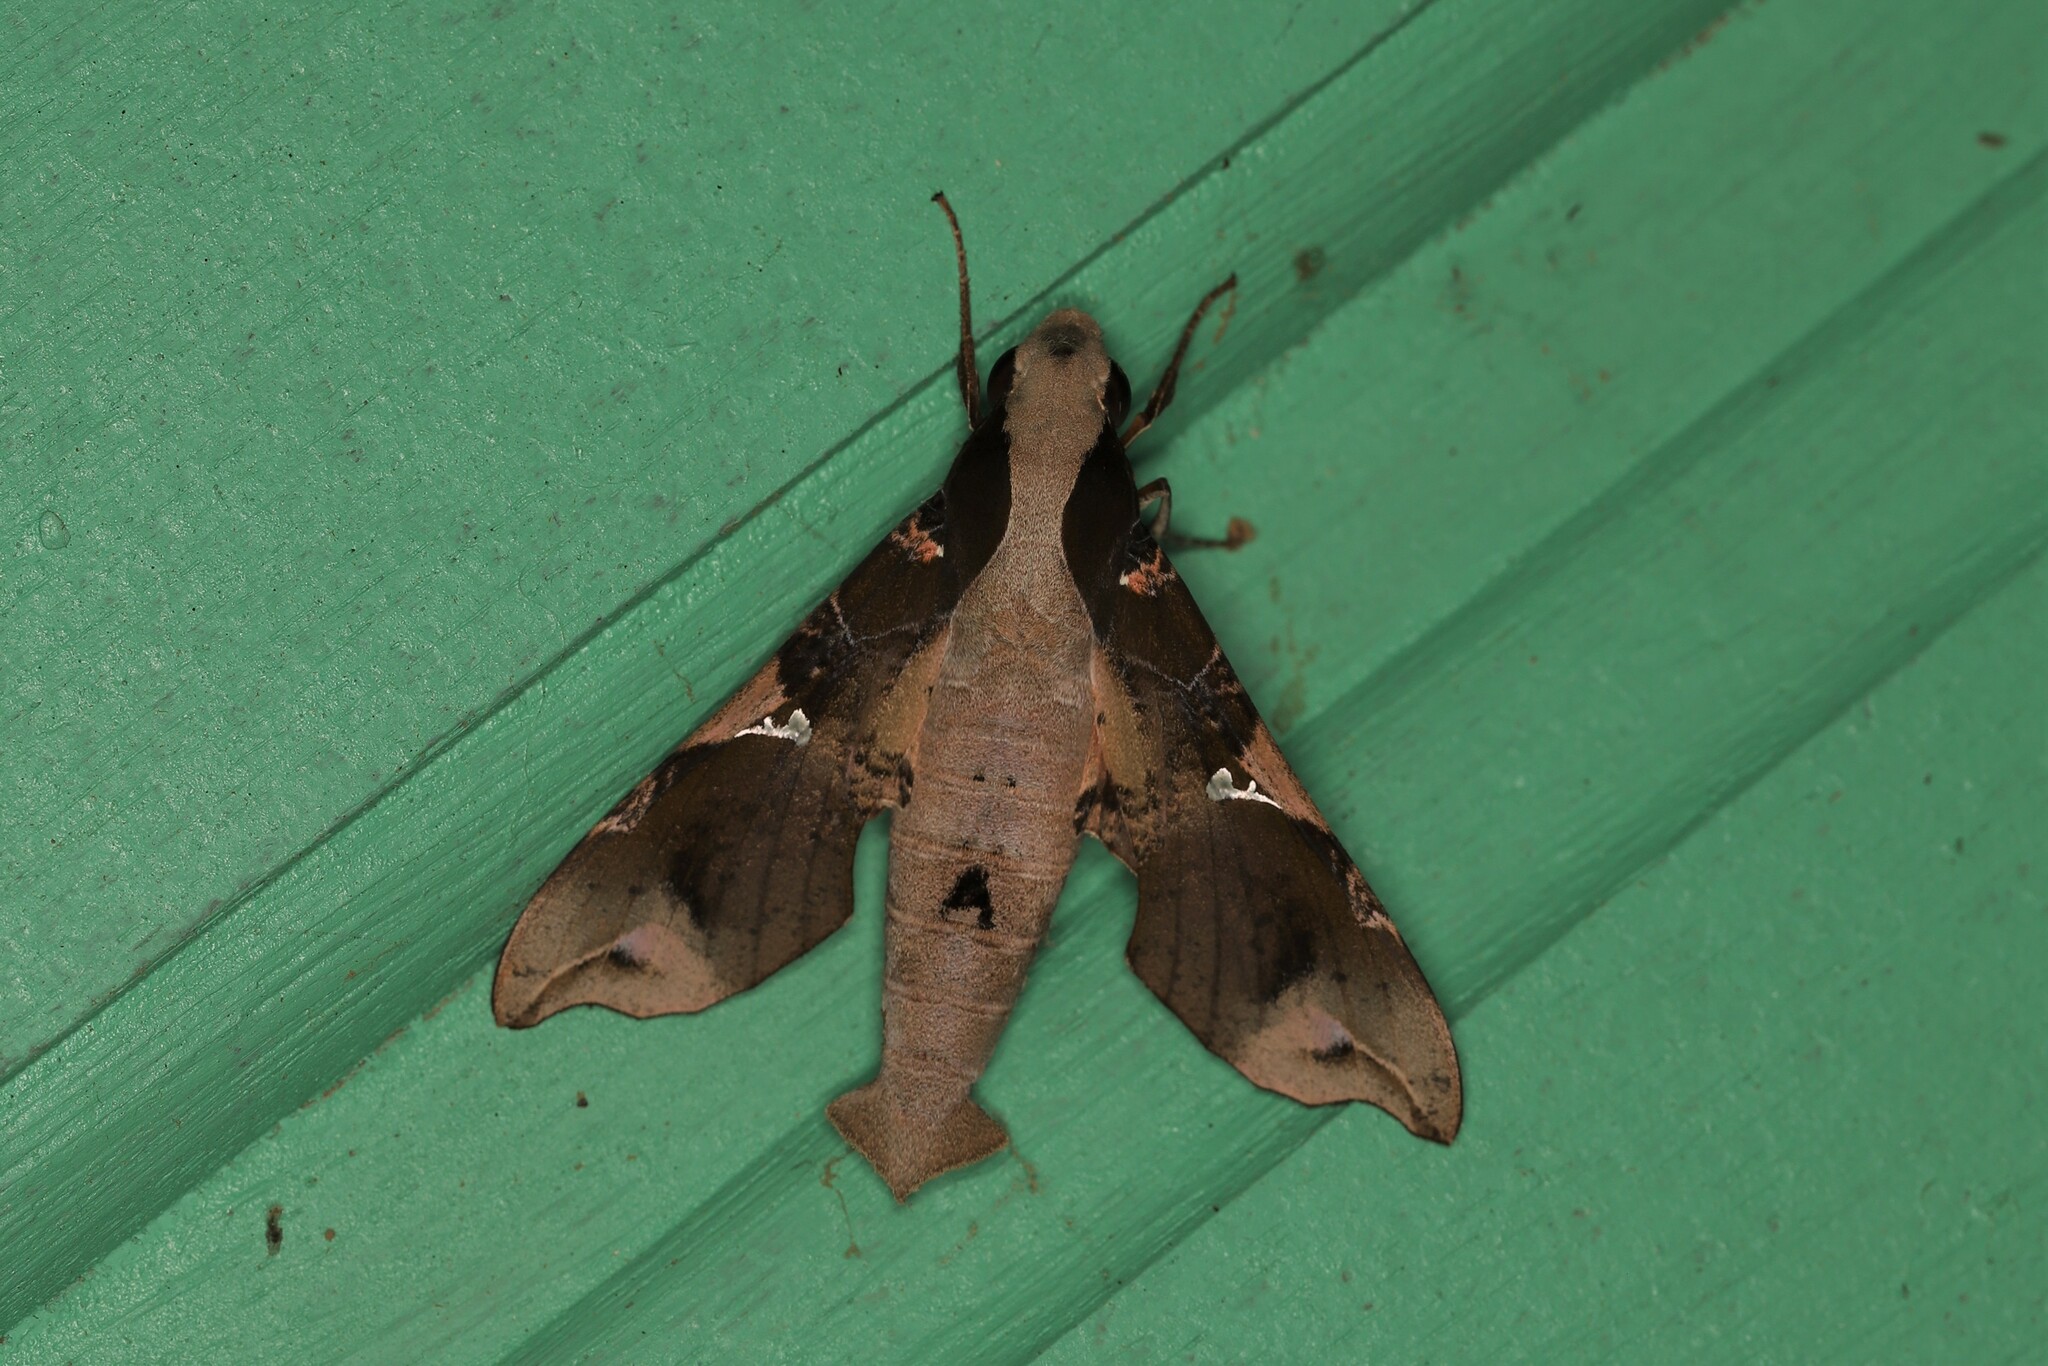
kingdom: Animalia
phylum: Arthropoda
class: Insecta
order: Lepidoptera
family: Sphingidae
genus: Callionima
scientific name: Callionima parce
